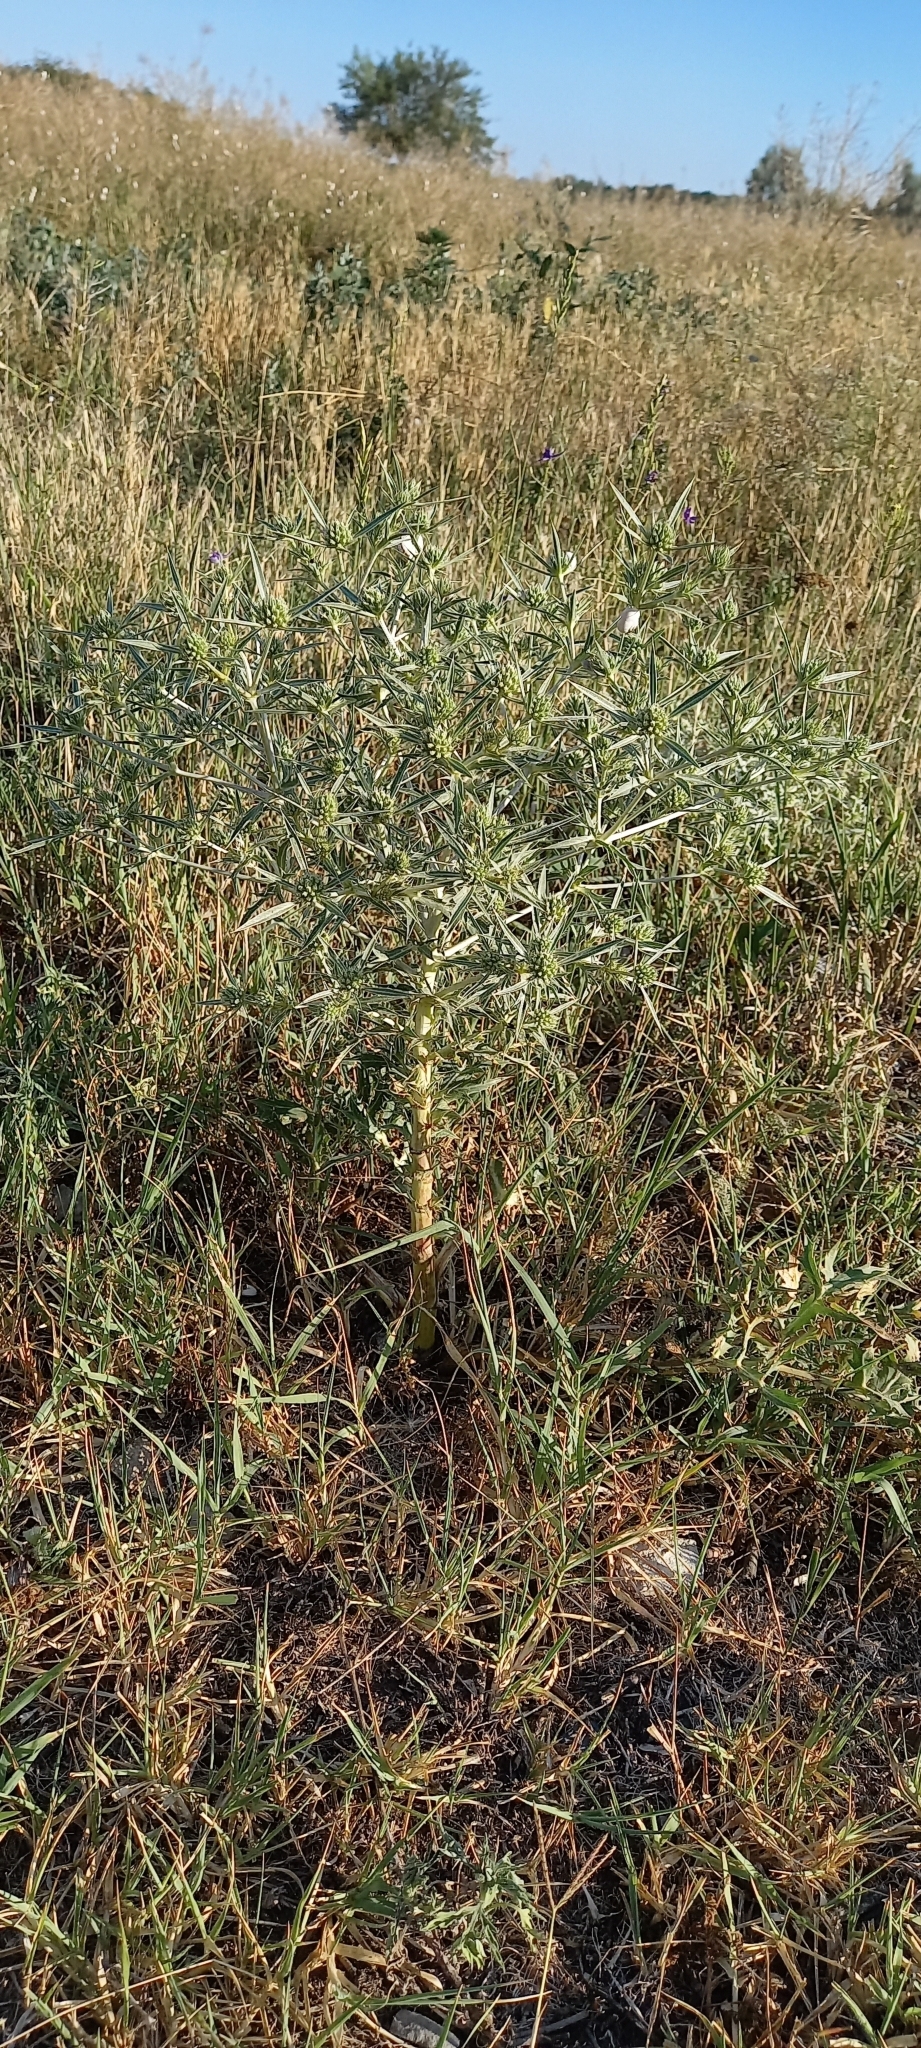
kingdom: Plantae
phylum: Tracheophyta
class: Magnoliopsida
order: Apiales
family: Apiaceae
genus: Eryngium
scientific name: Eryngium campestre
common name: Field eryngo
